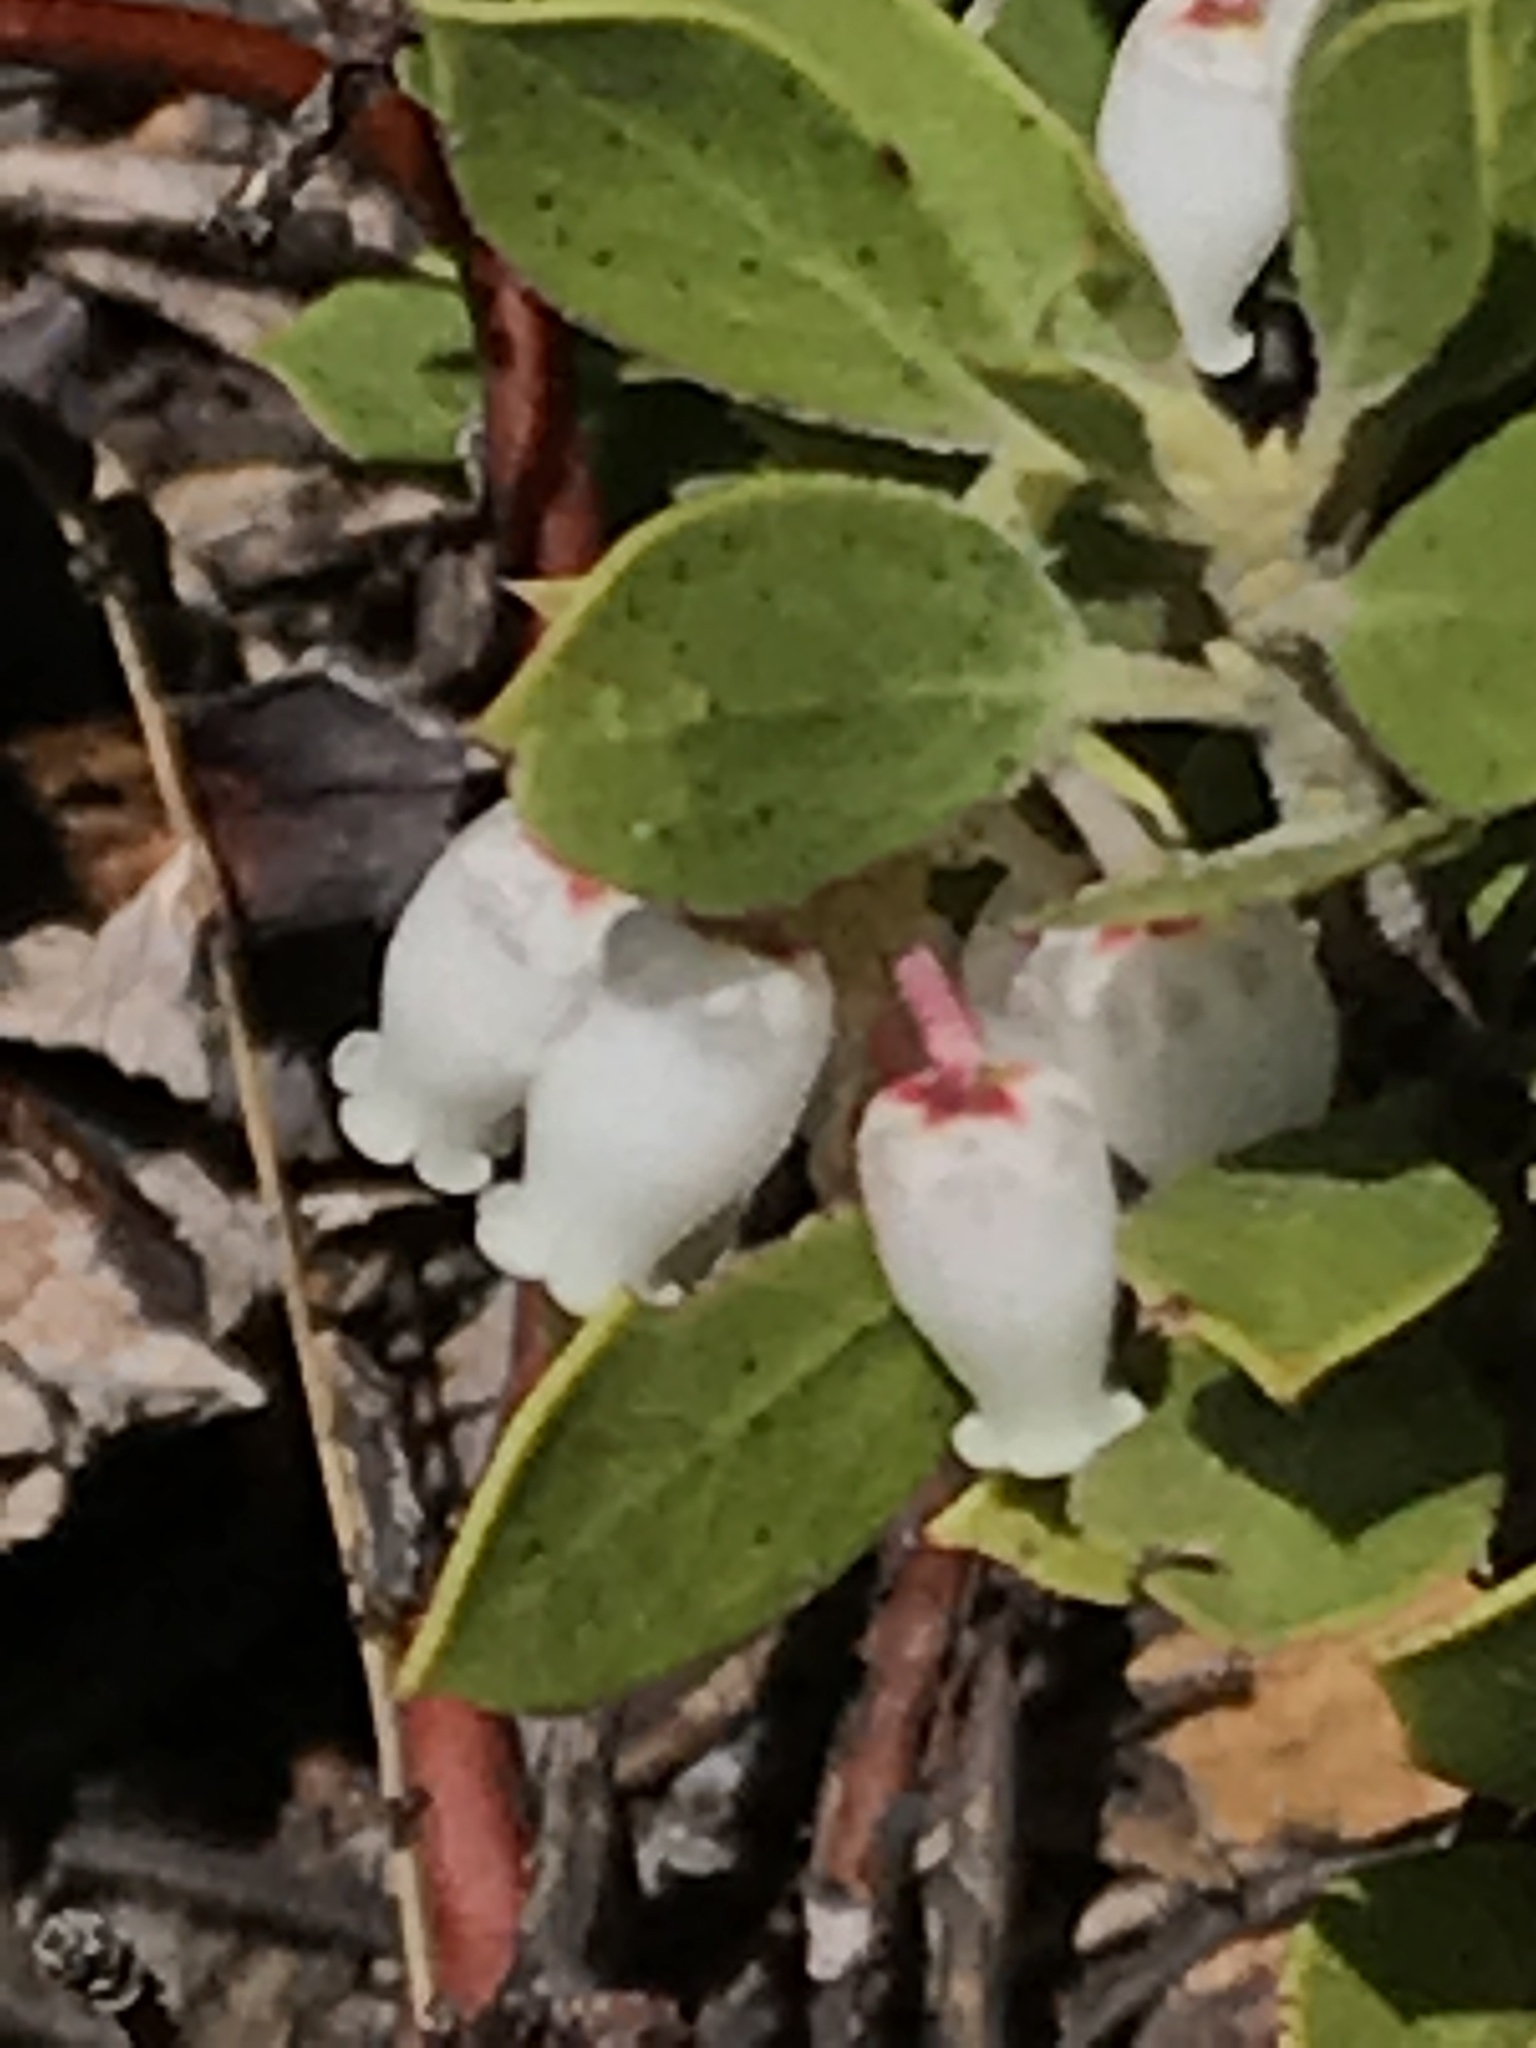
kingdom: Plantae
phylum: Tracheophyta
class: Magnoliopsida
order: Ericales
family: Ericaceae
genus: Arctostaphylos
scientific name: Arctostaphylos nevadensis
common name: Pinemat manzanita
